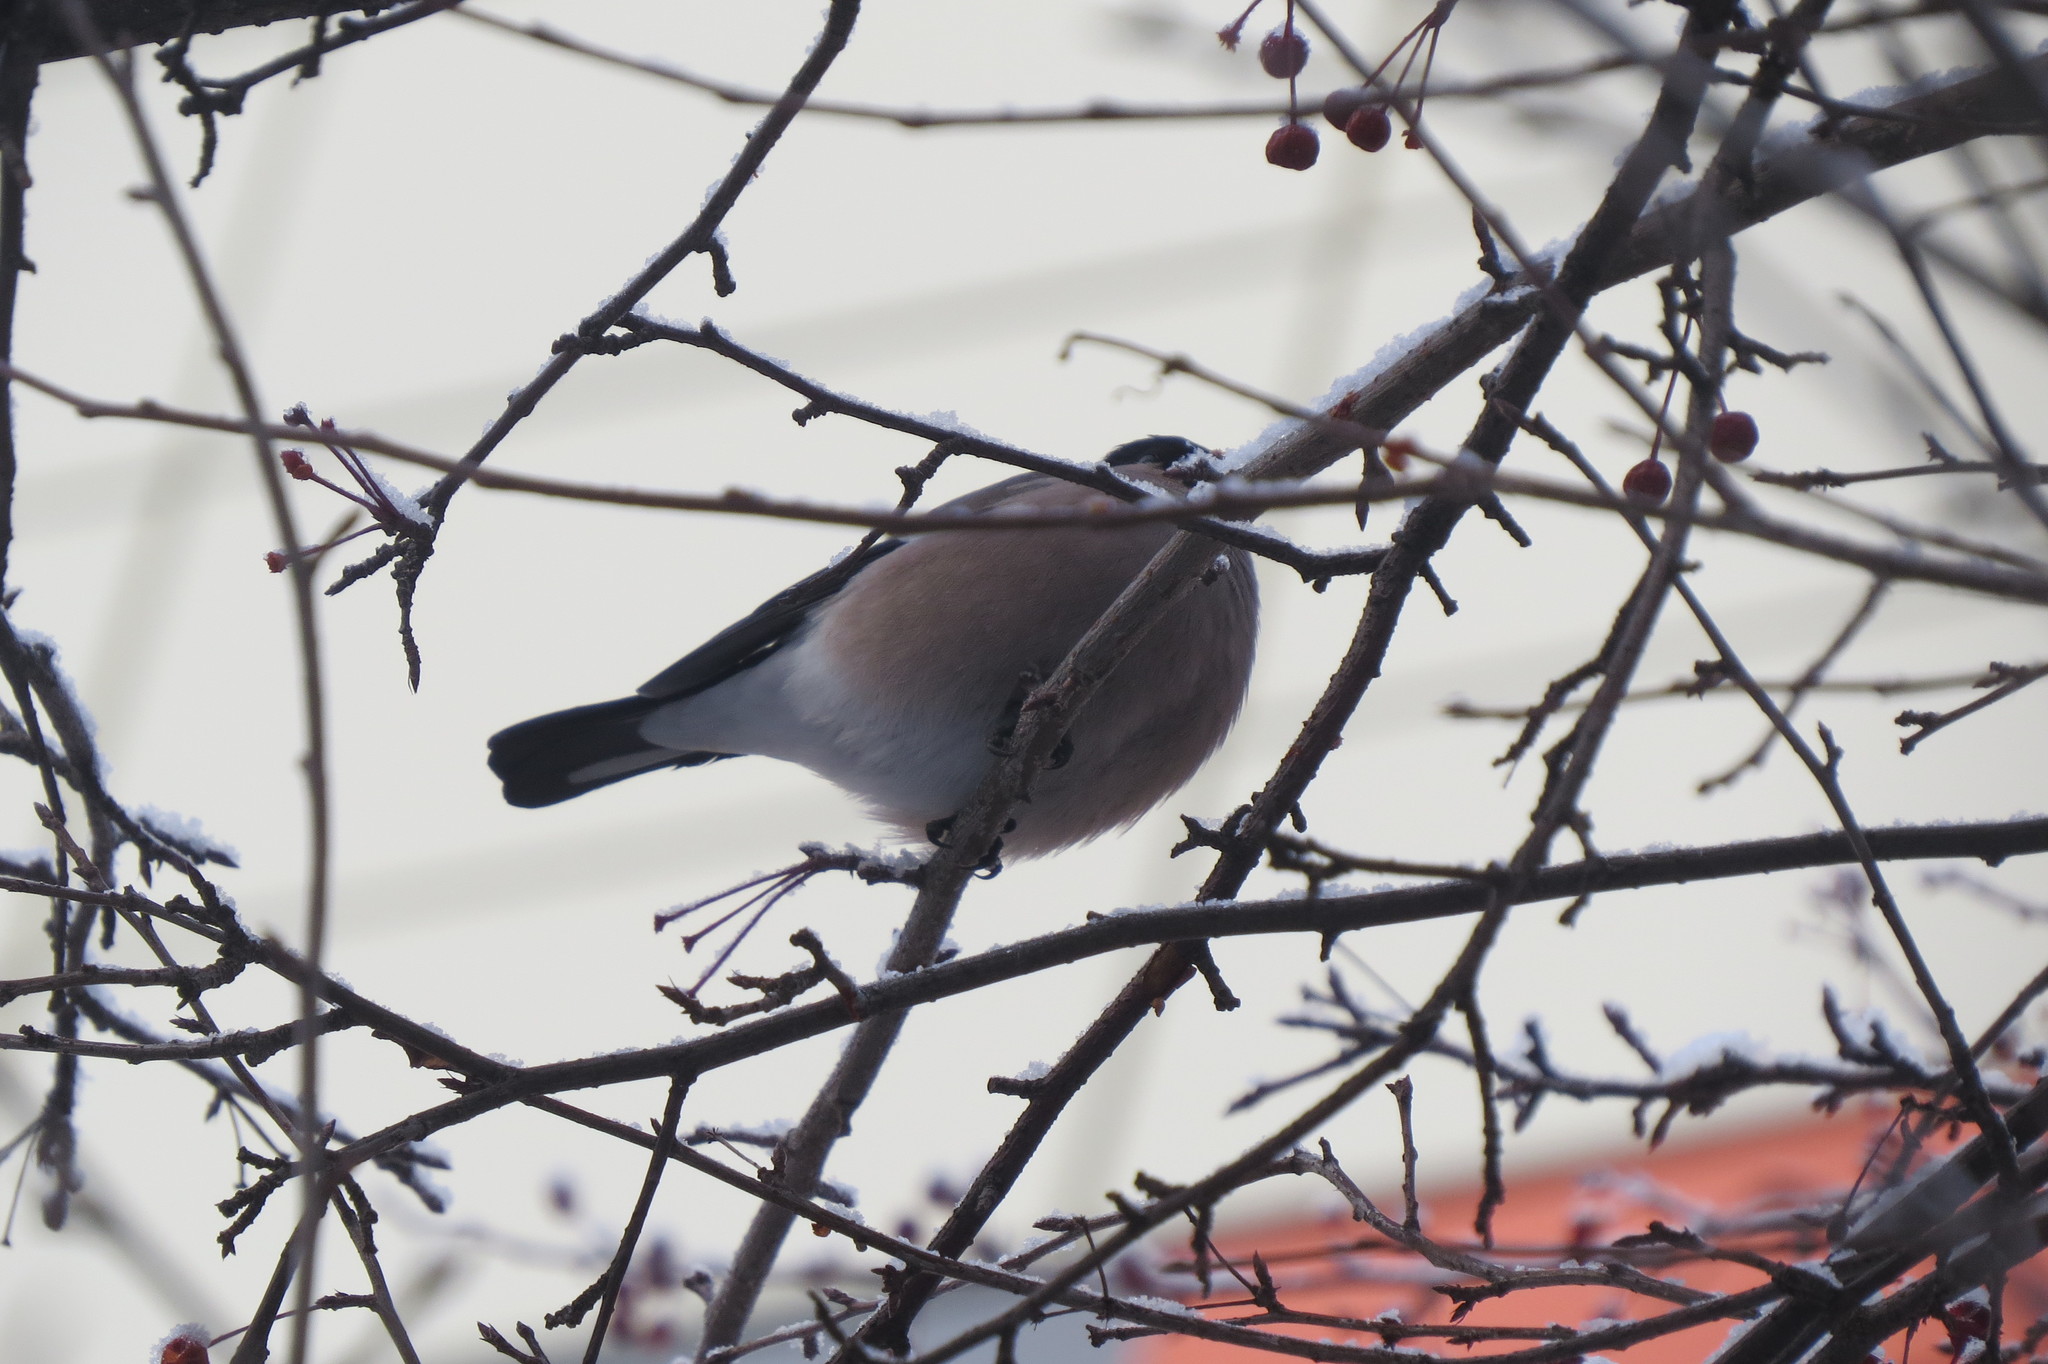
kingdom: Animalia
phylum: Chordata
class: Aves
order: Passeriformes
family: Fringillidae
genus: Pyrrhula
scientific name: Pyrrhula pyrrhula
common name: Eurasian bullfinch
